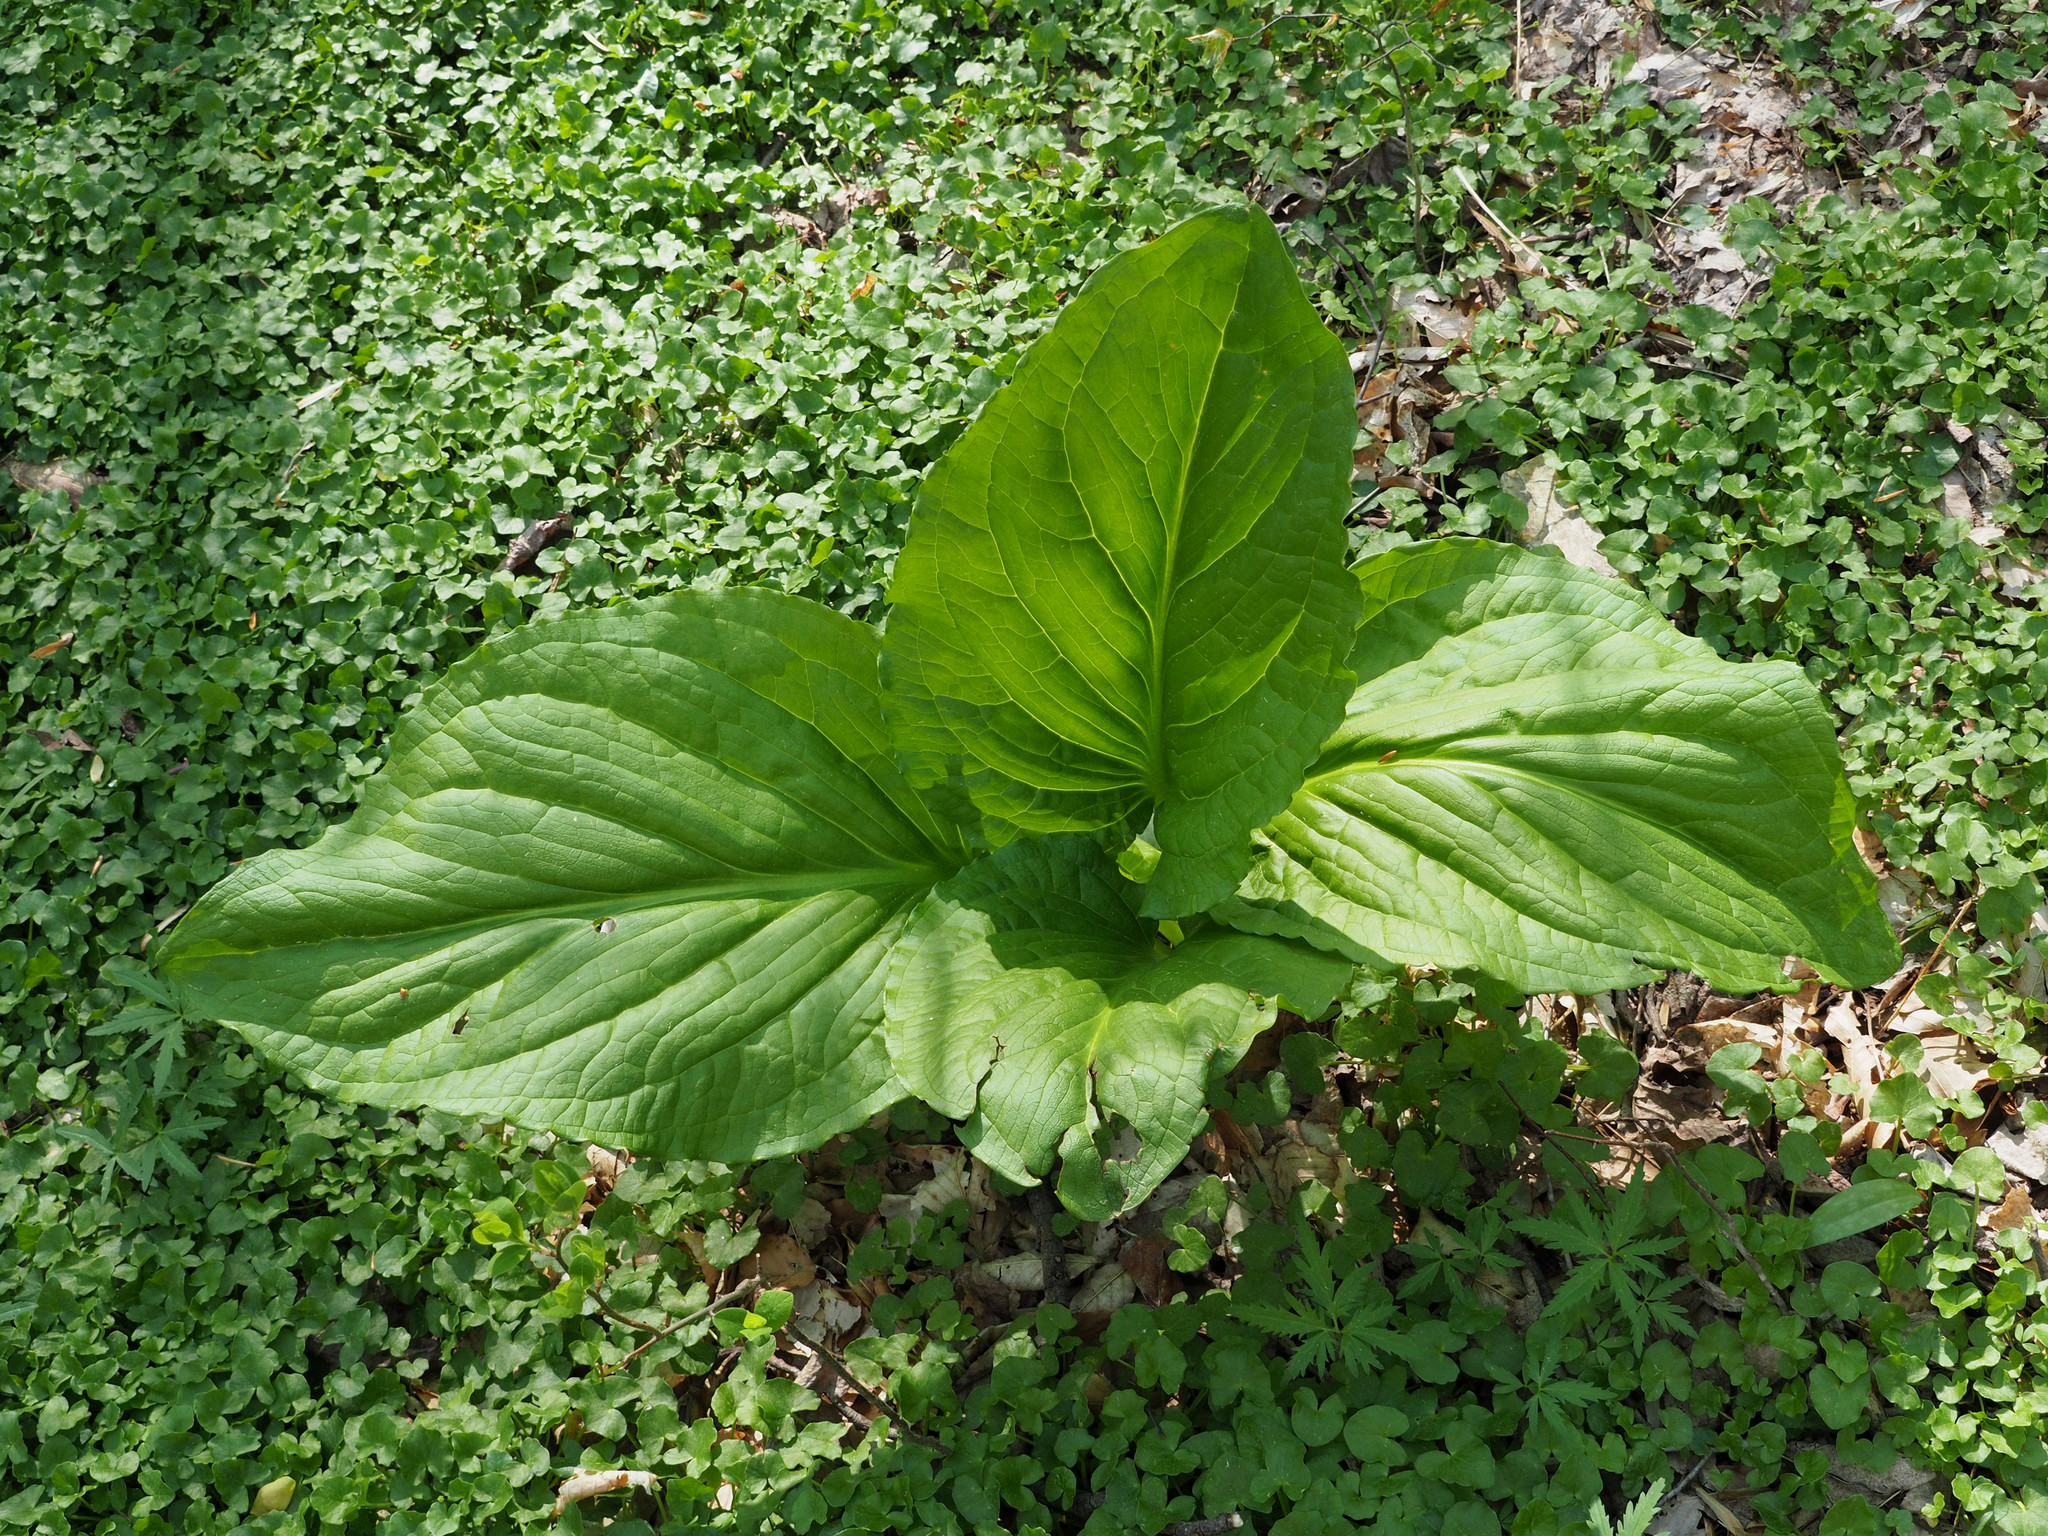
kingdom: Plantae
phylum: Tracheophyta
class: Liliopsida
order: Alismatales
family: Araceae
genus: Symplocarpus
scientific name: Symplocarpus foetidus
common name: Eastern skunk cabbage
